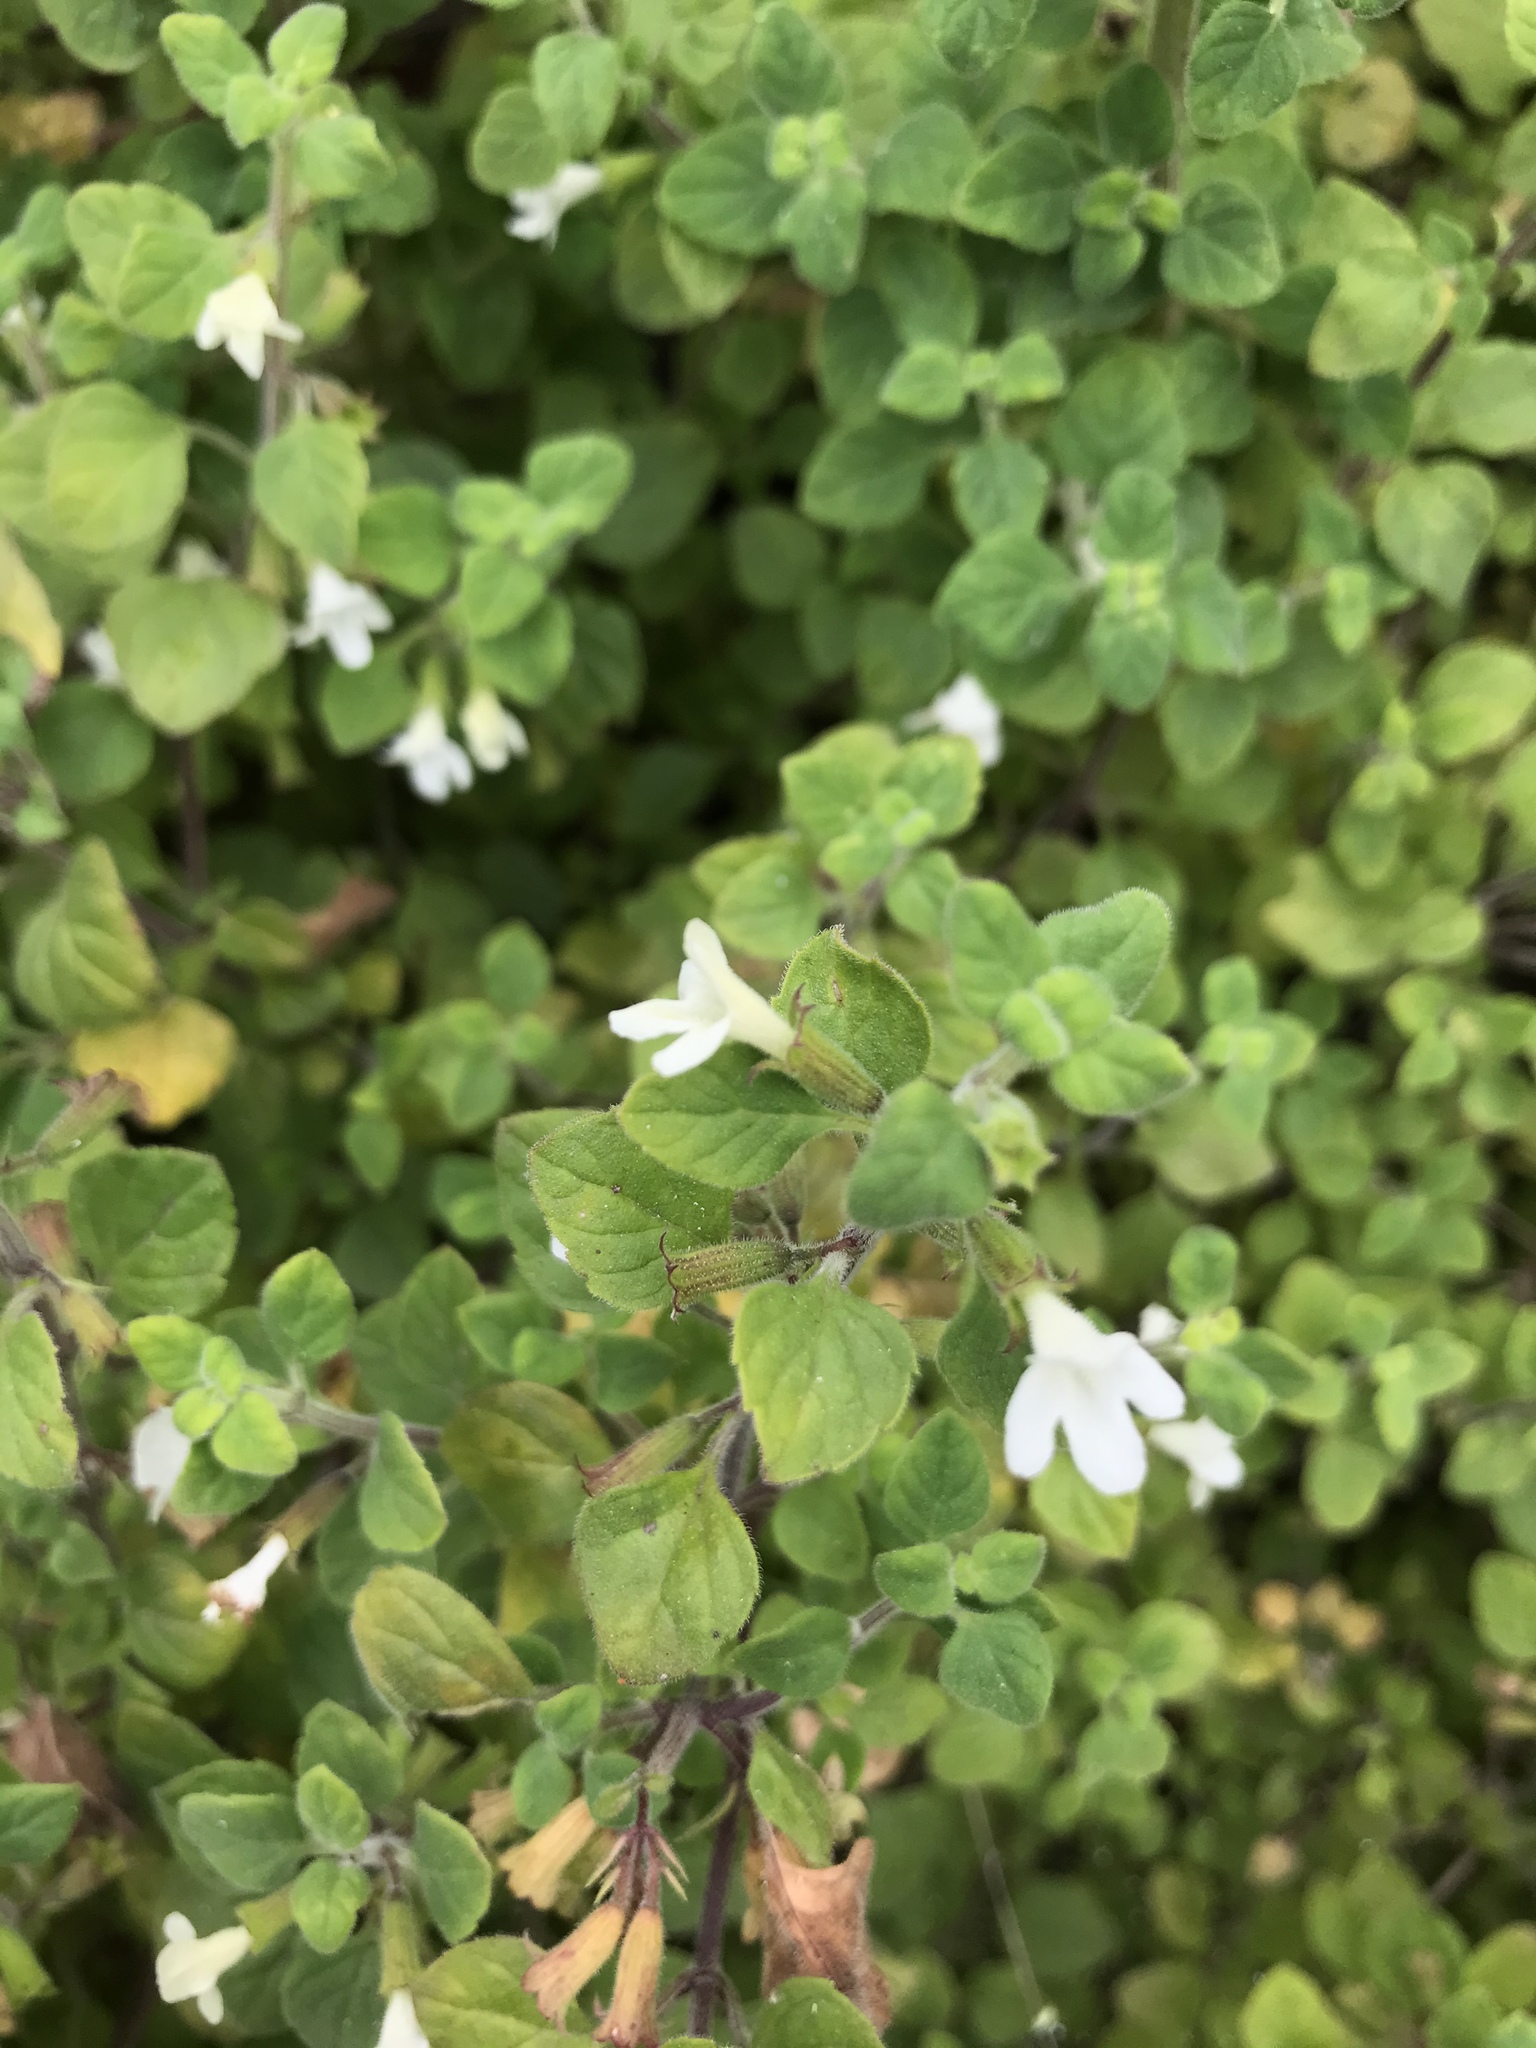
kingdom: Plantae
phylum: Tracheophyta
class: Magnoliopsida
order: Lamiales
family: Lamiaceae
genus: Clinopodium
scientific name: Clinopodium chandleri
